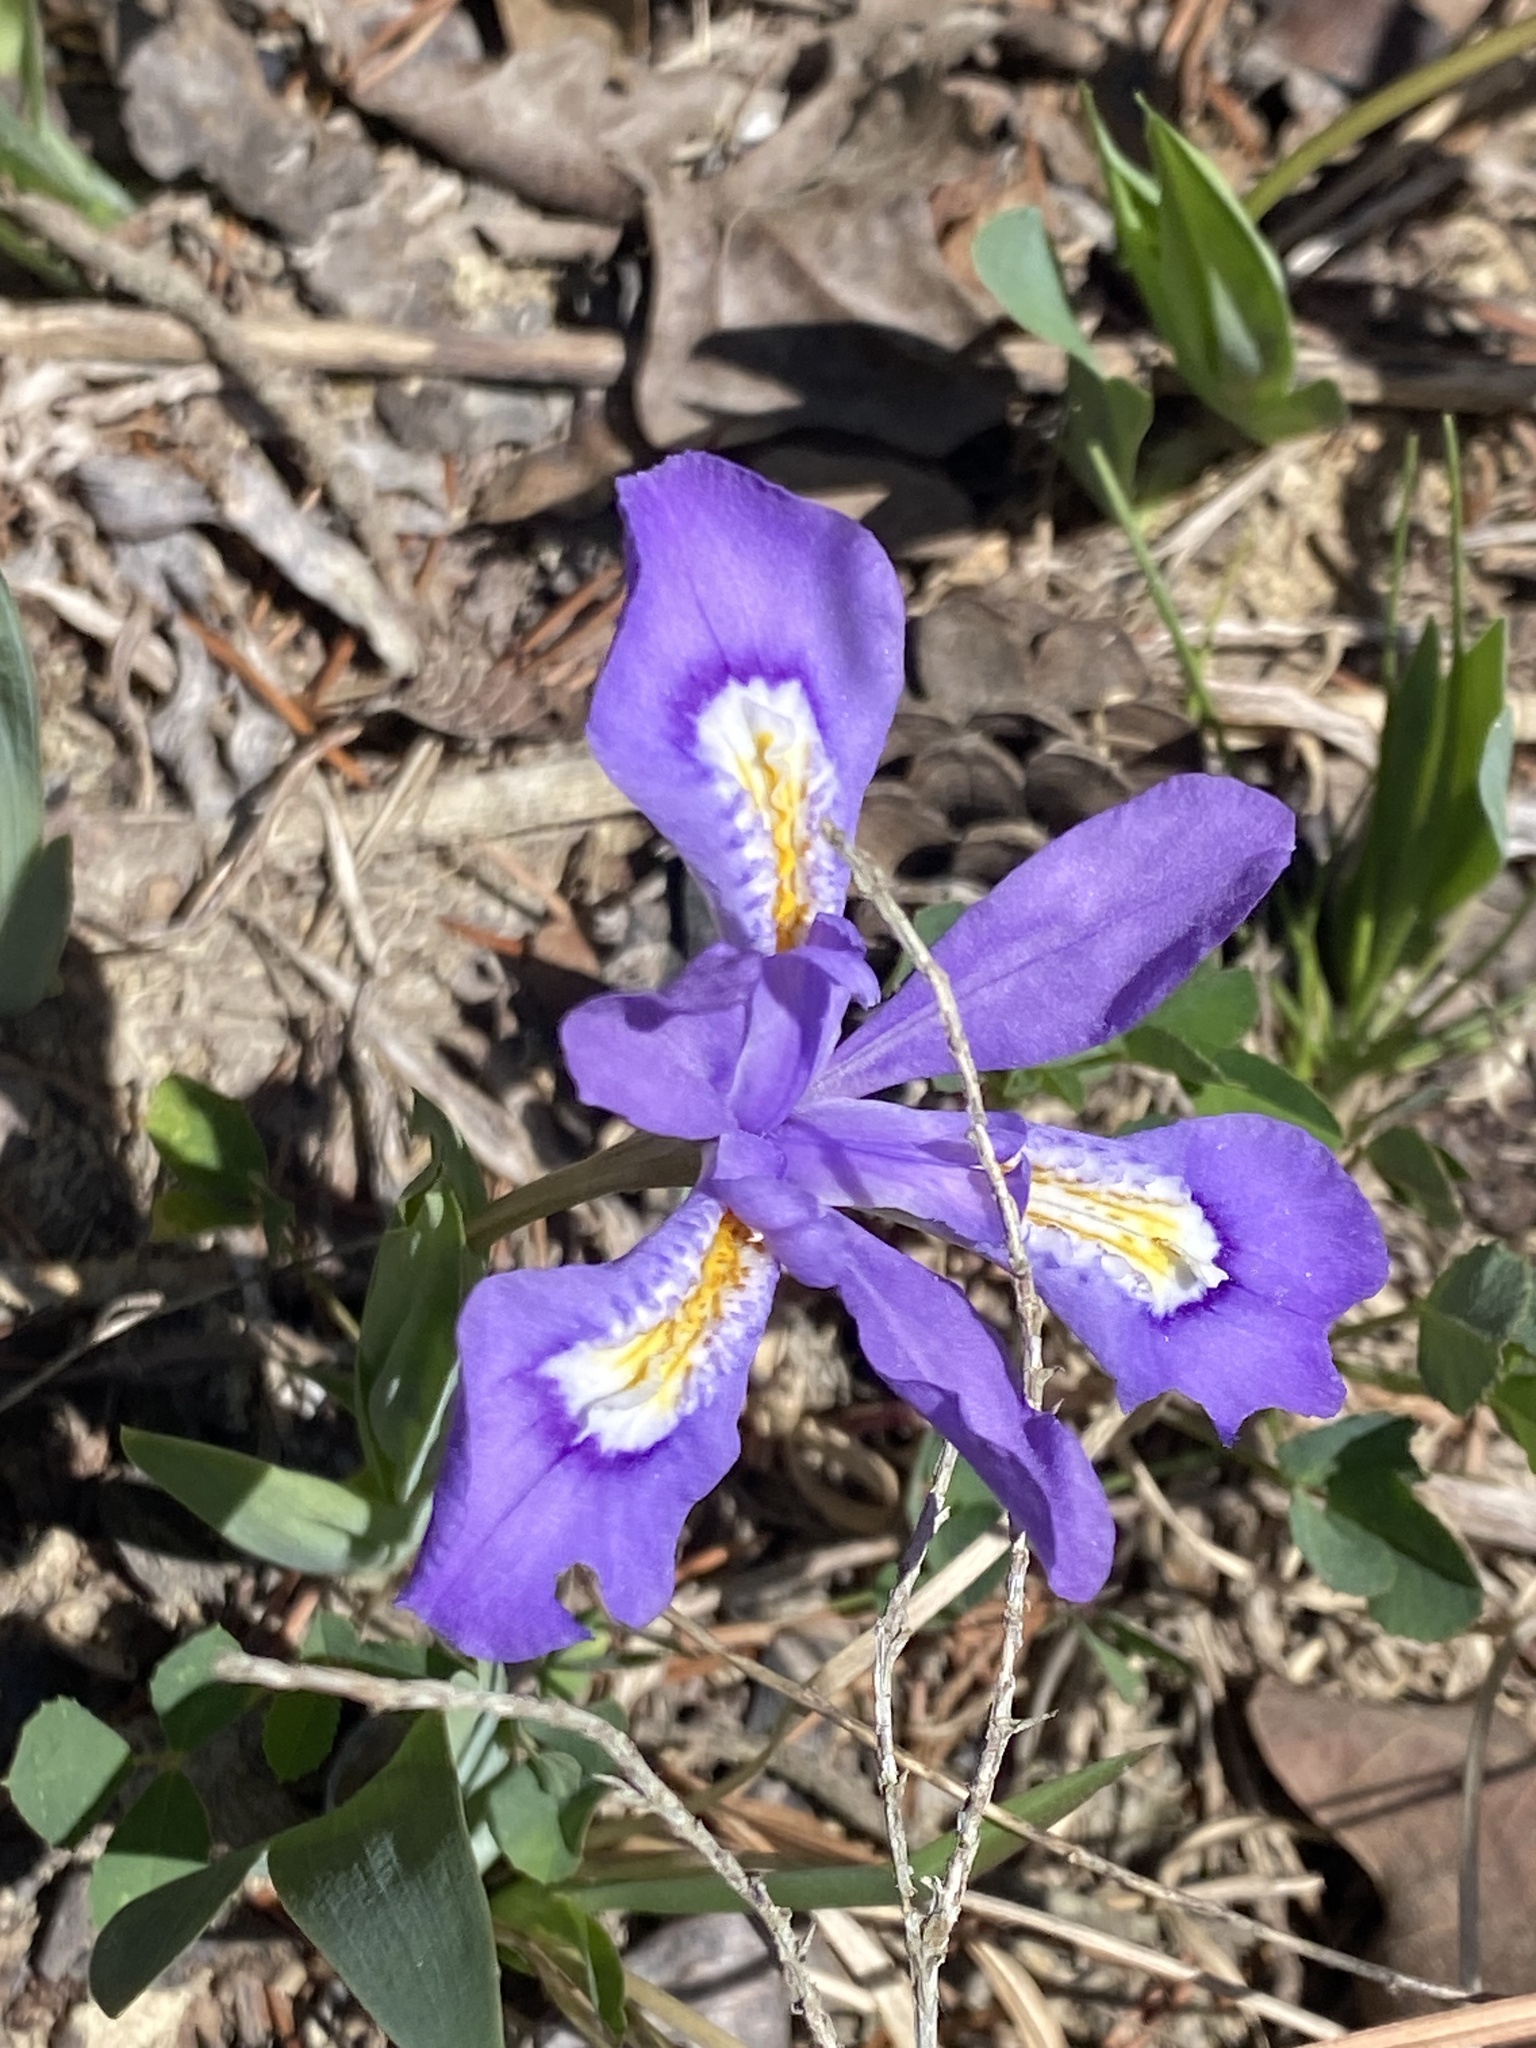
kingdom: Plantae
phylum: Tracheophyta
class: Liliopsida
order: Asparagales
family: Iridaceae
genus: Iris
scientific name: Iris cristata
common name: Crested iris
